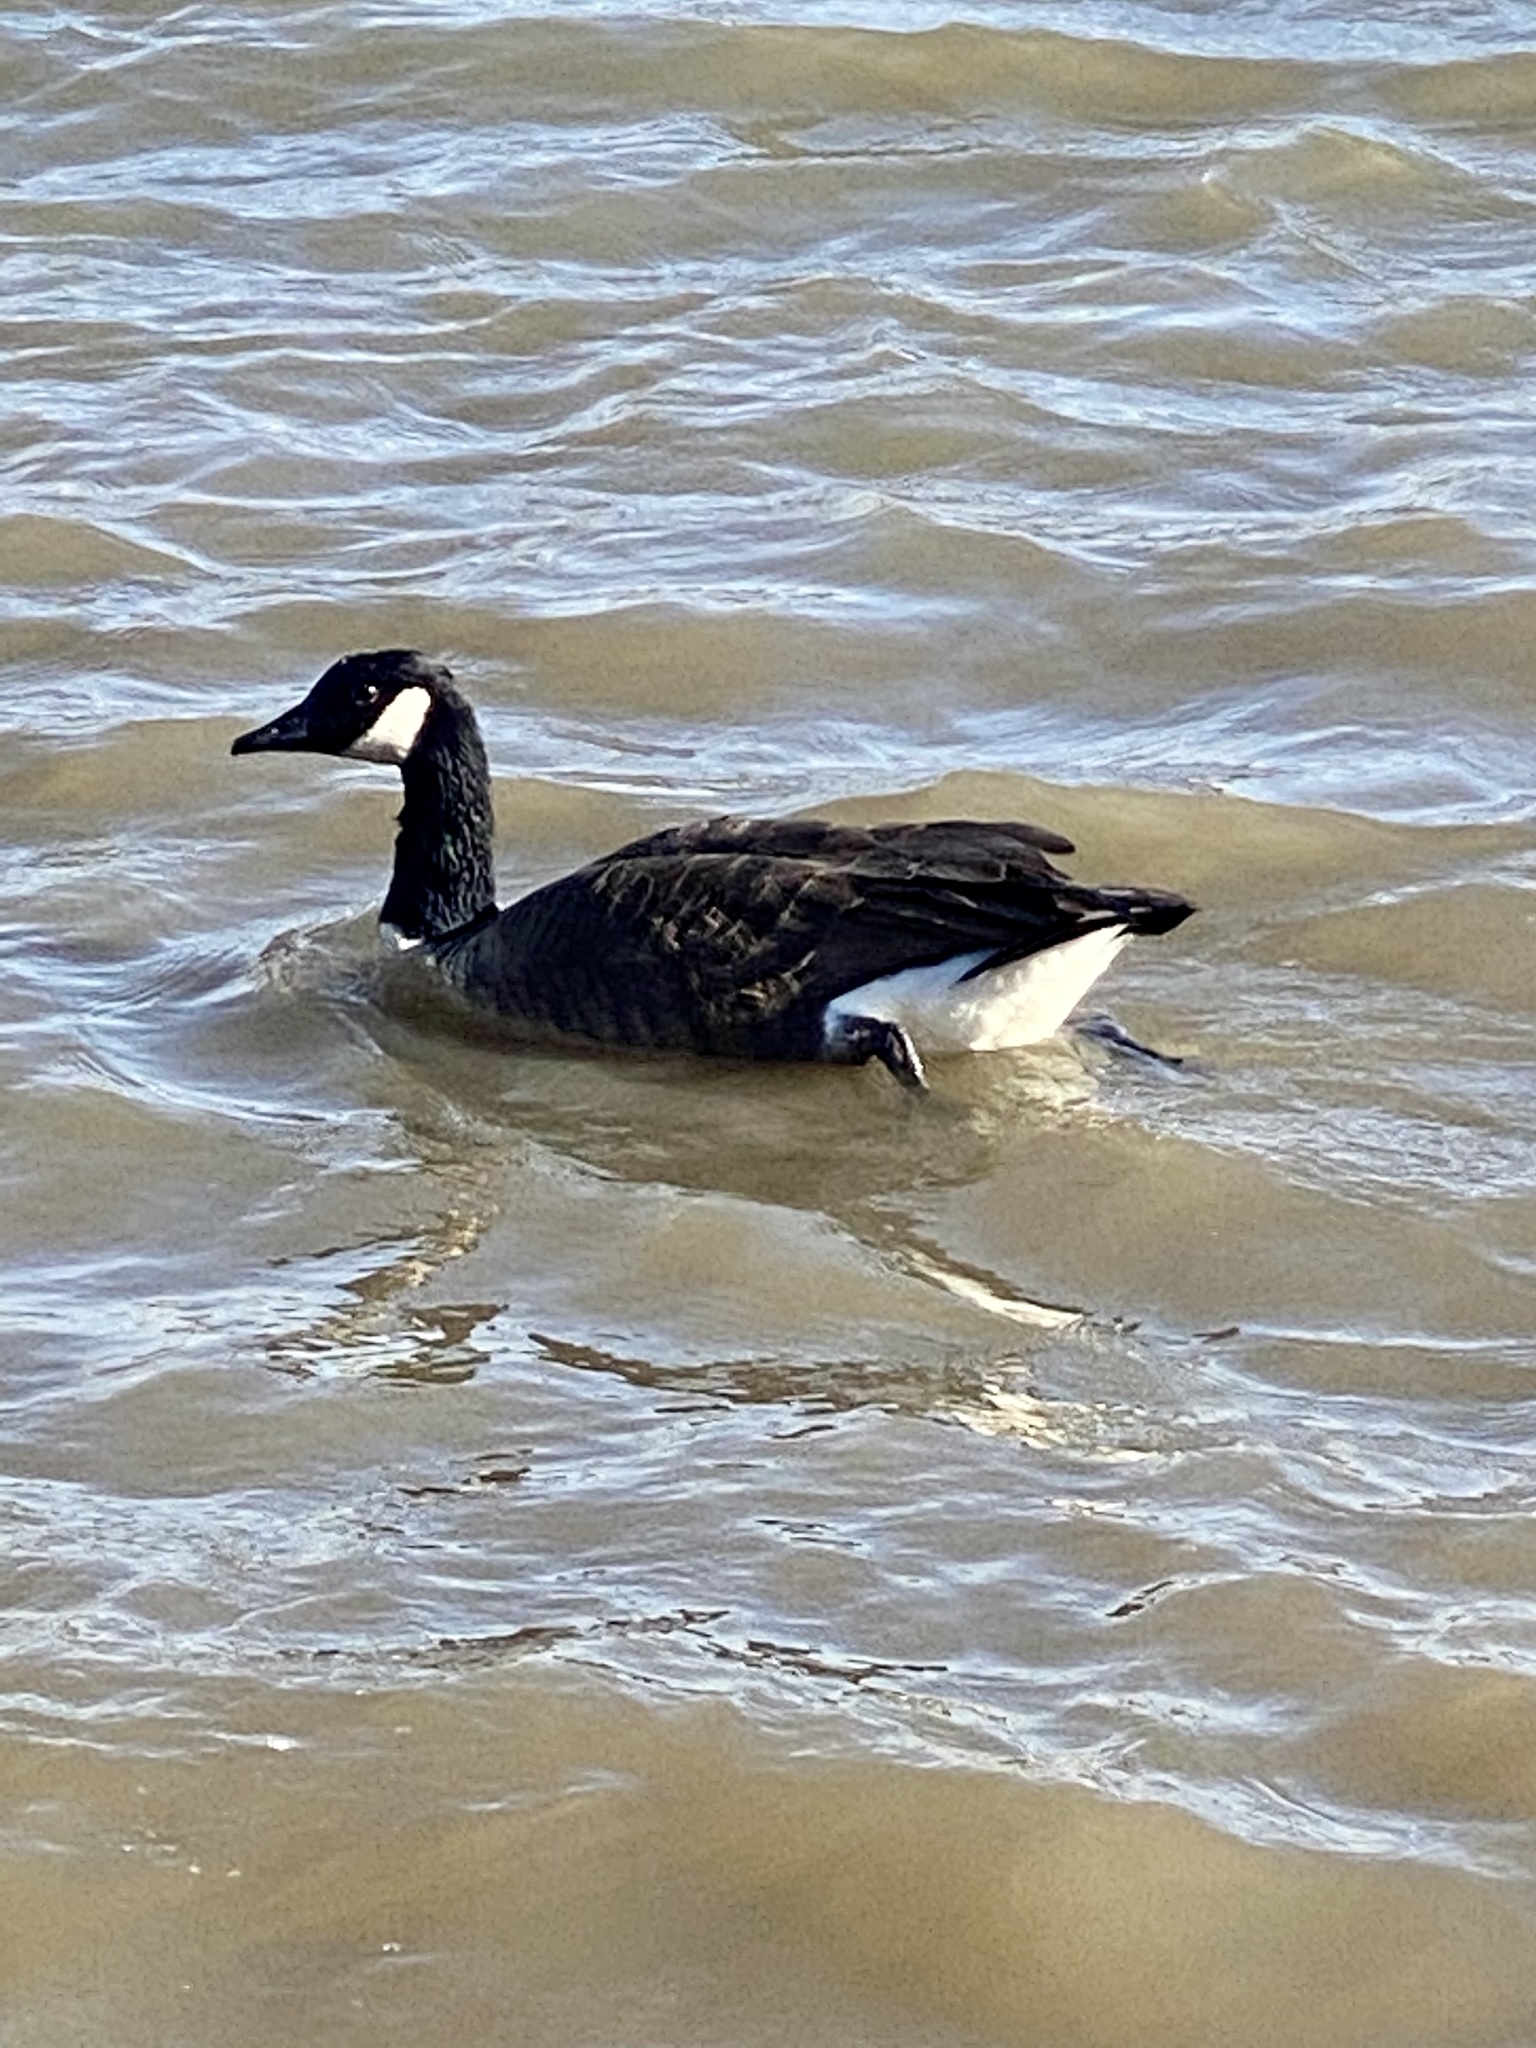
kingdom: Animalia
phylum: Chordata
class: Aves
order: Anseriformes
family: Anatidae
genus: Branta
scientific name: Branta canadensis
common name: Canada goose
